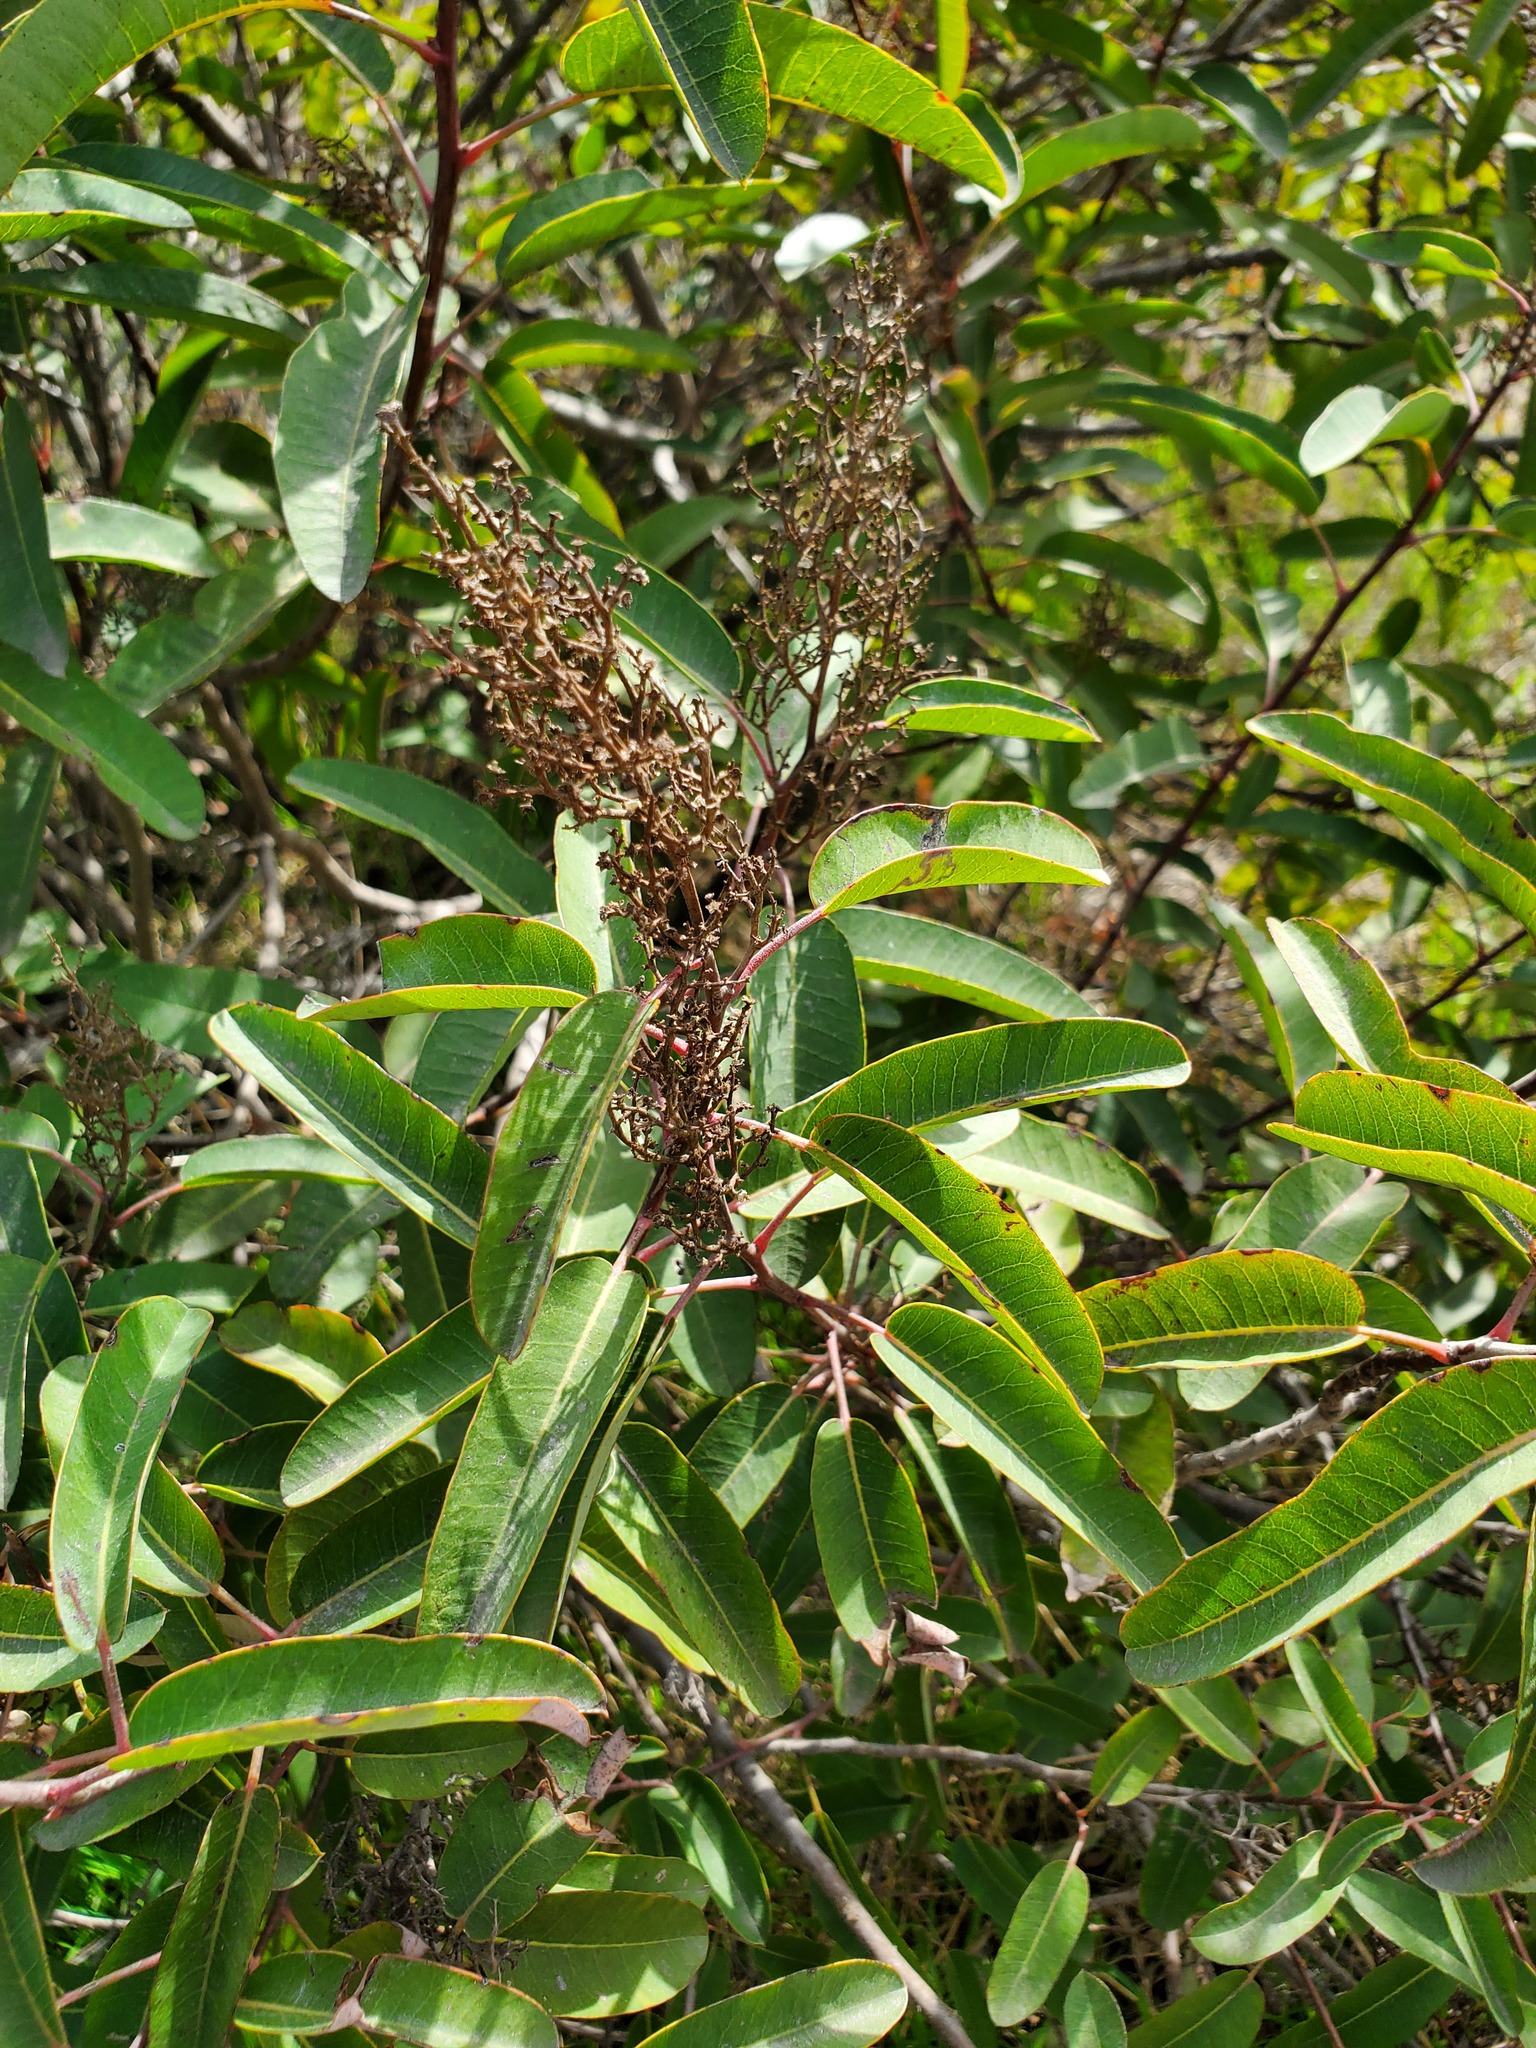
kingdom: Plantae
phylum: Tracheophyta
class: Magnoliopsida
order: Sapindales
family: Anacardiaceae
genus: Malosma
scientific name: Malosma laurina
